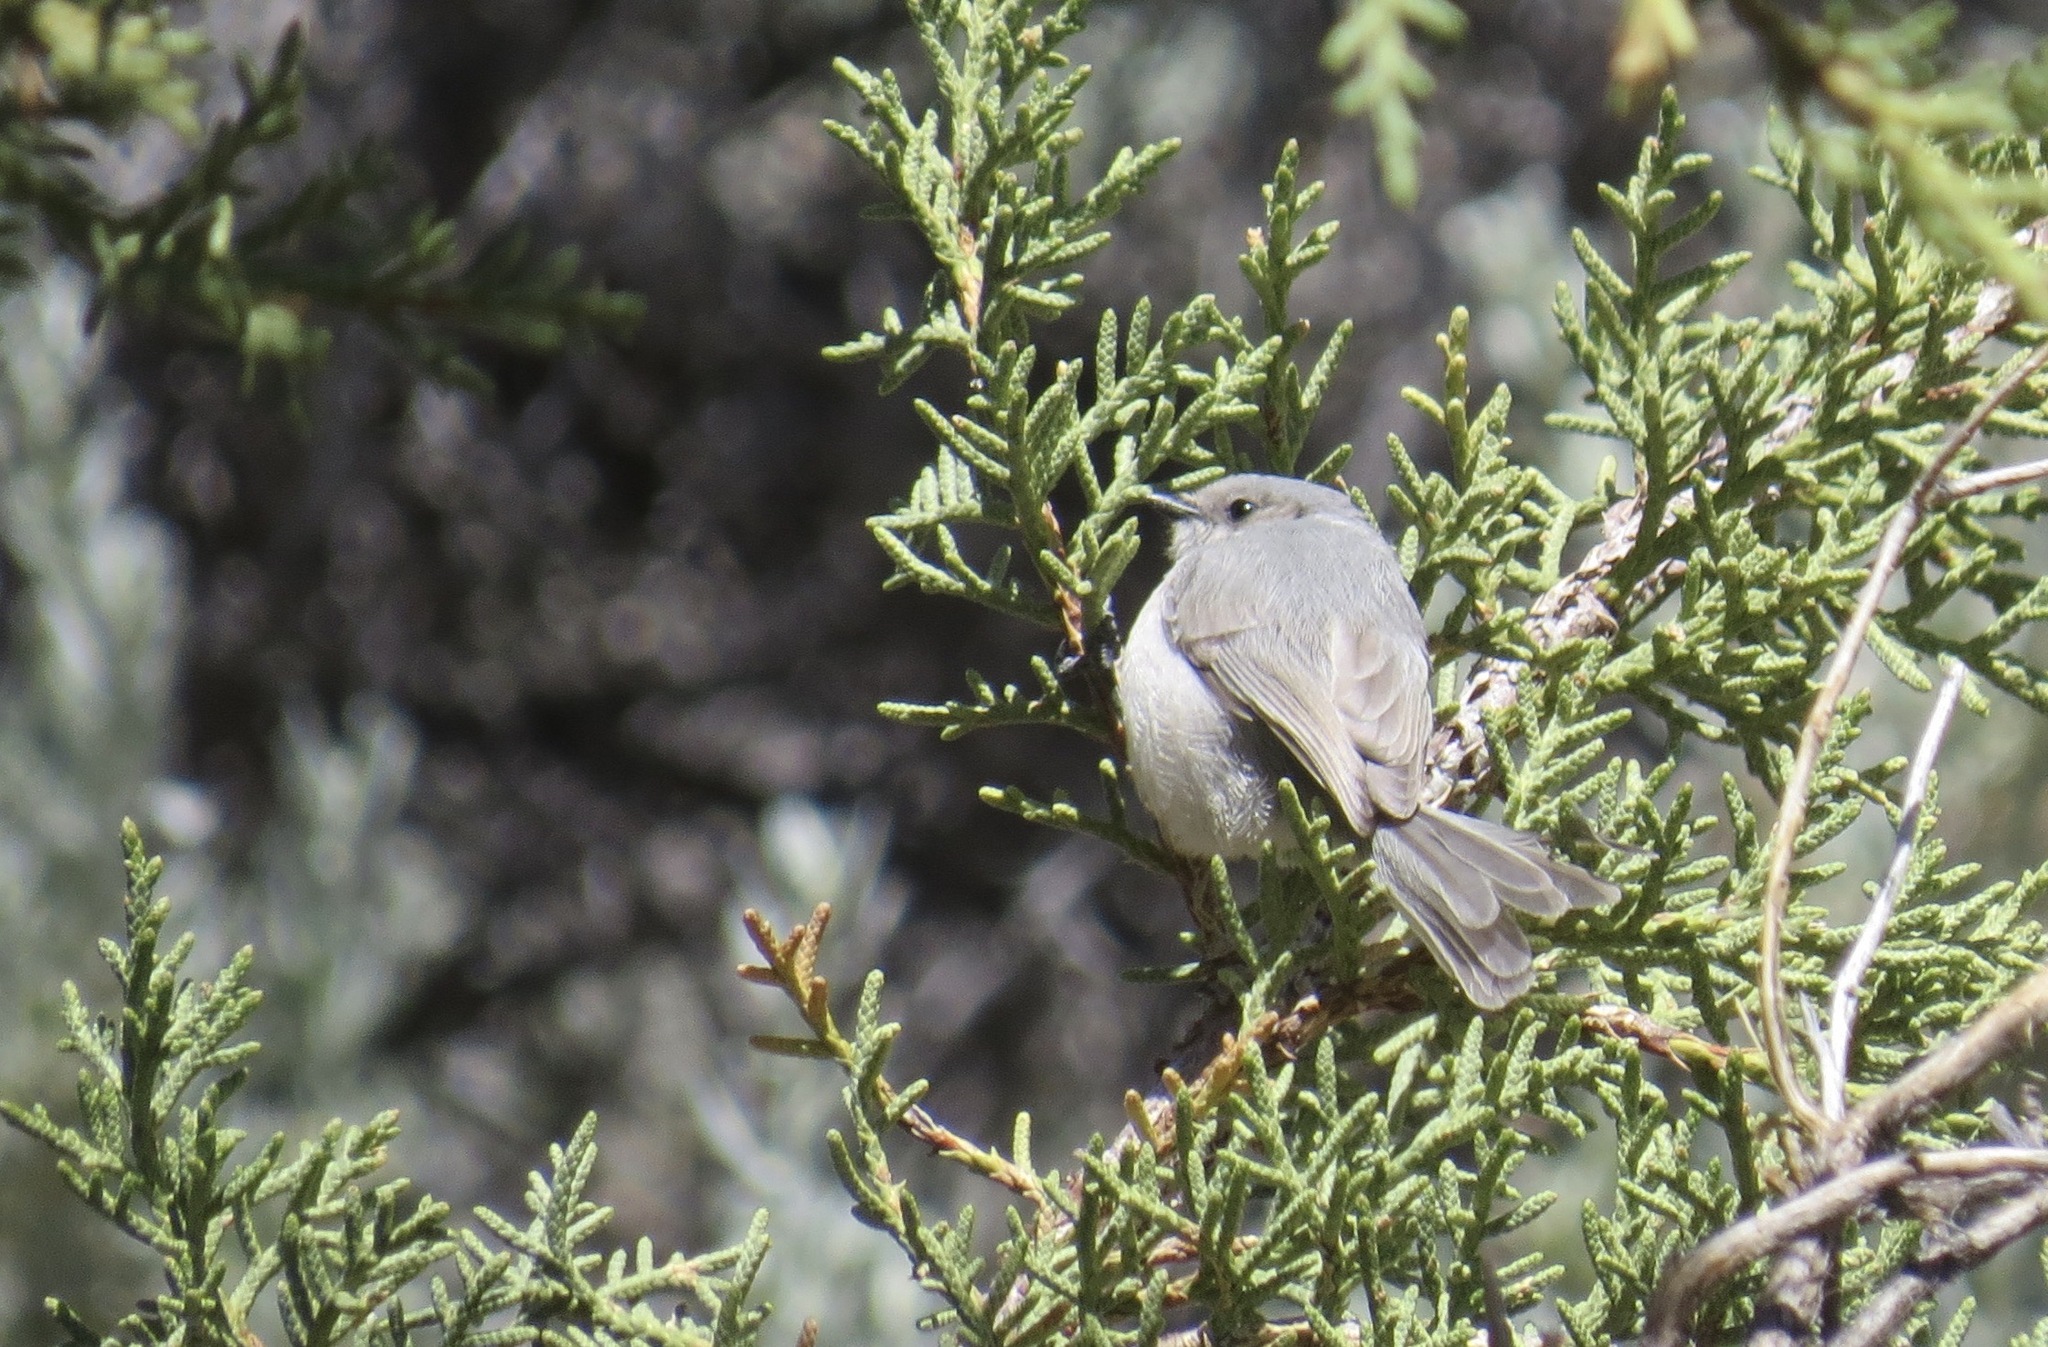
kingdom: Animalia
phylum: Chordata
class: Aves
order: Passeriformes
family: Aegithalidae
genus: Psaltriparus
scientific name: Psaltriparus minimus
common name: American bushtit
